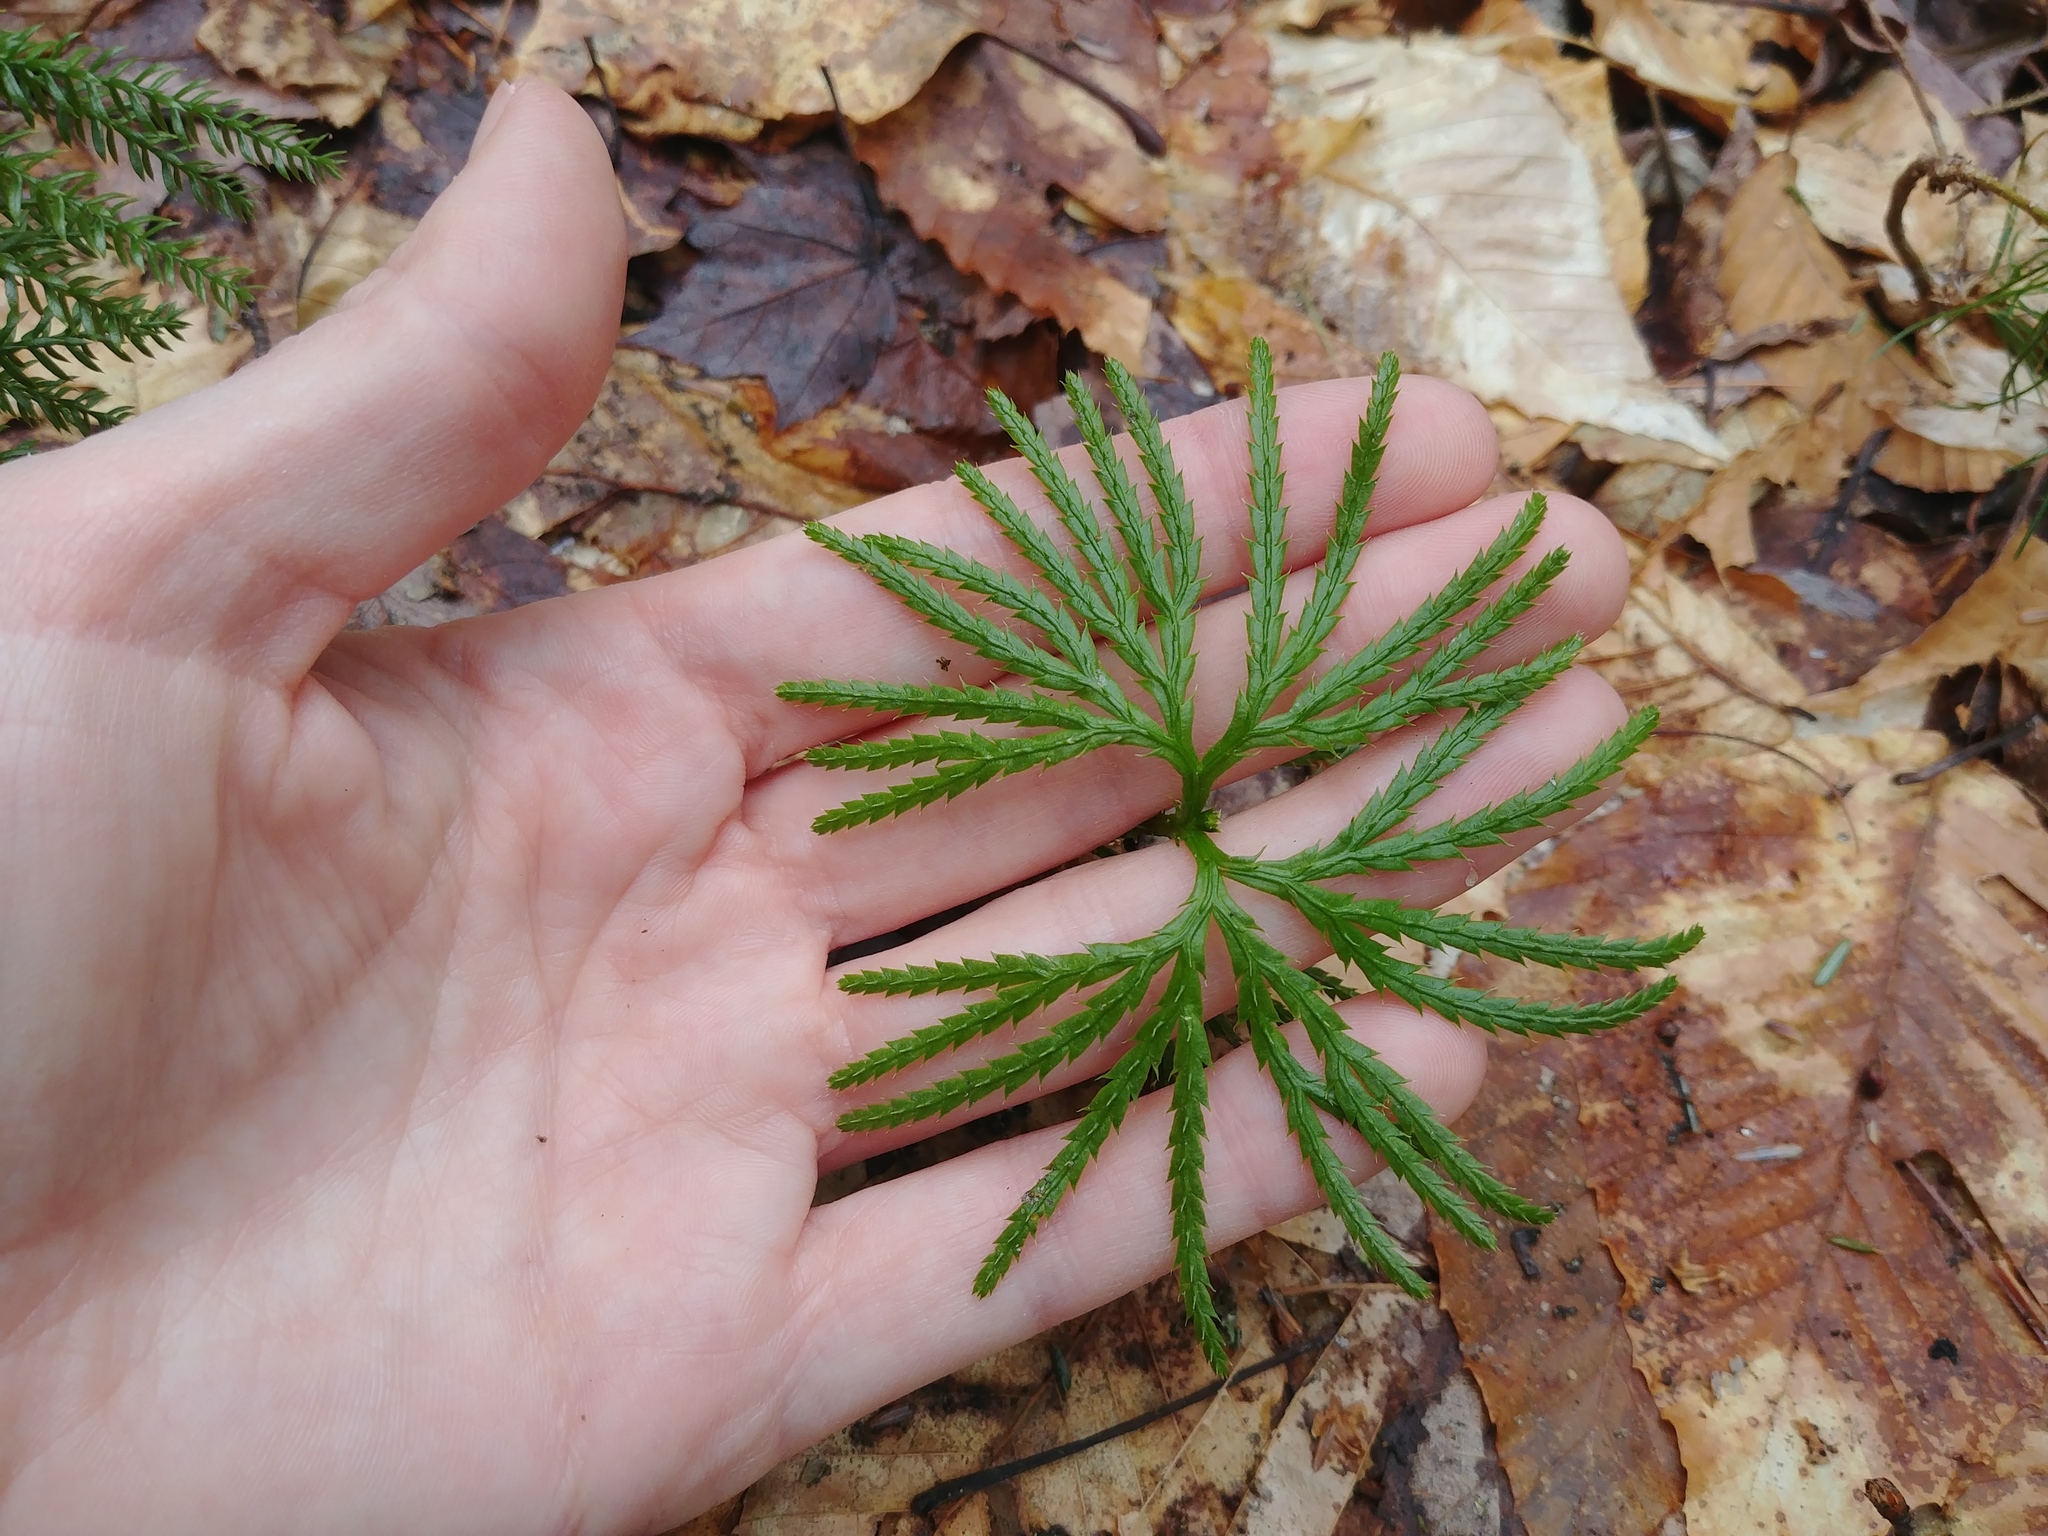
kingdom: Plantae
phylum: Tracheophyta
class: Lycopodiopsida
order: Lycopodiales
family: Lycopodiaceae
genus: Diphasiastrum
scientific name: Diphasiastrum digitatum
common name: Southern running-pine
